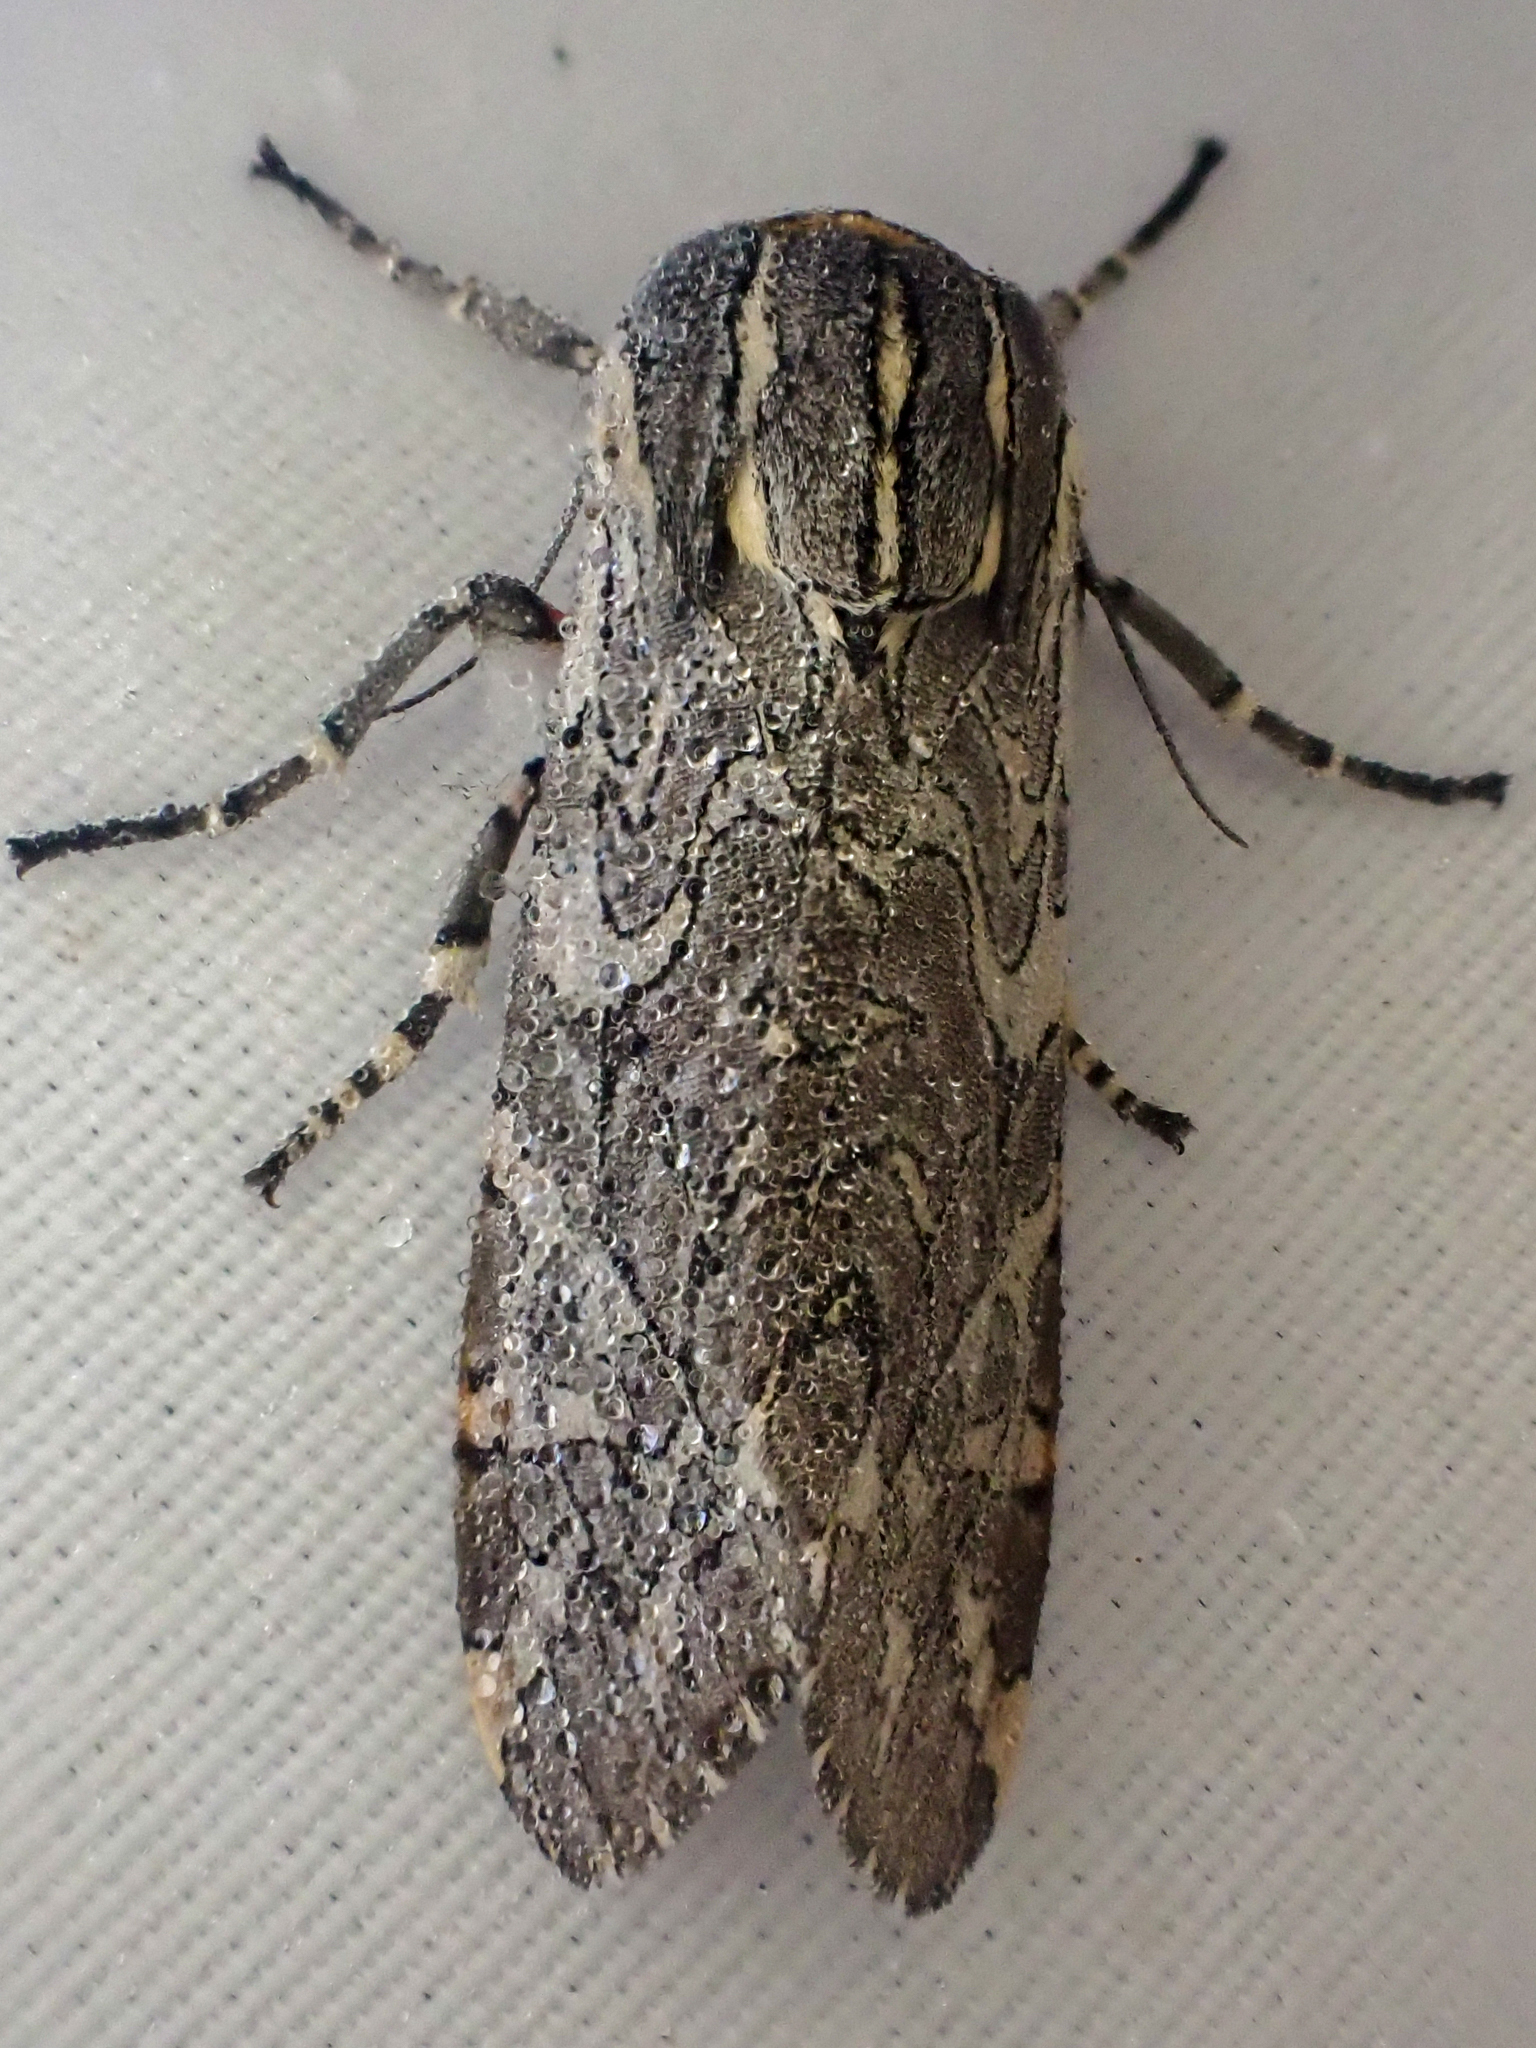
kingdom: Animalia
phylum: Arthropoda
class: Insecta
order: Lepidoptera
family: Erebidae
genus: Arachnis
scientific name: Arachnis picta
